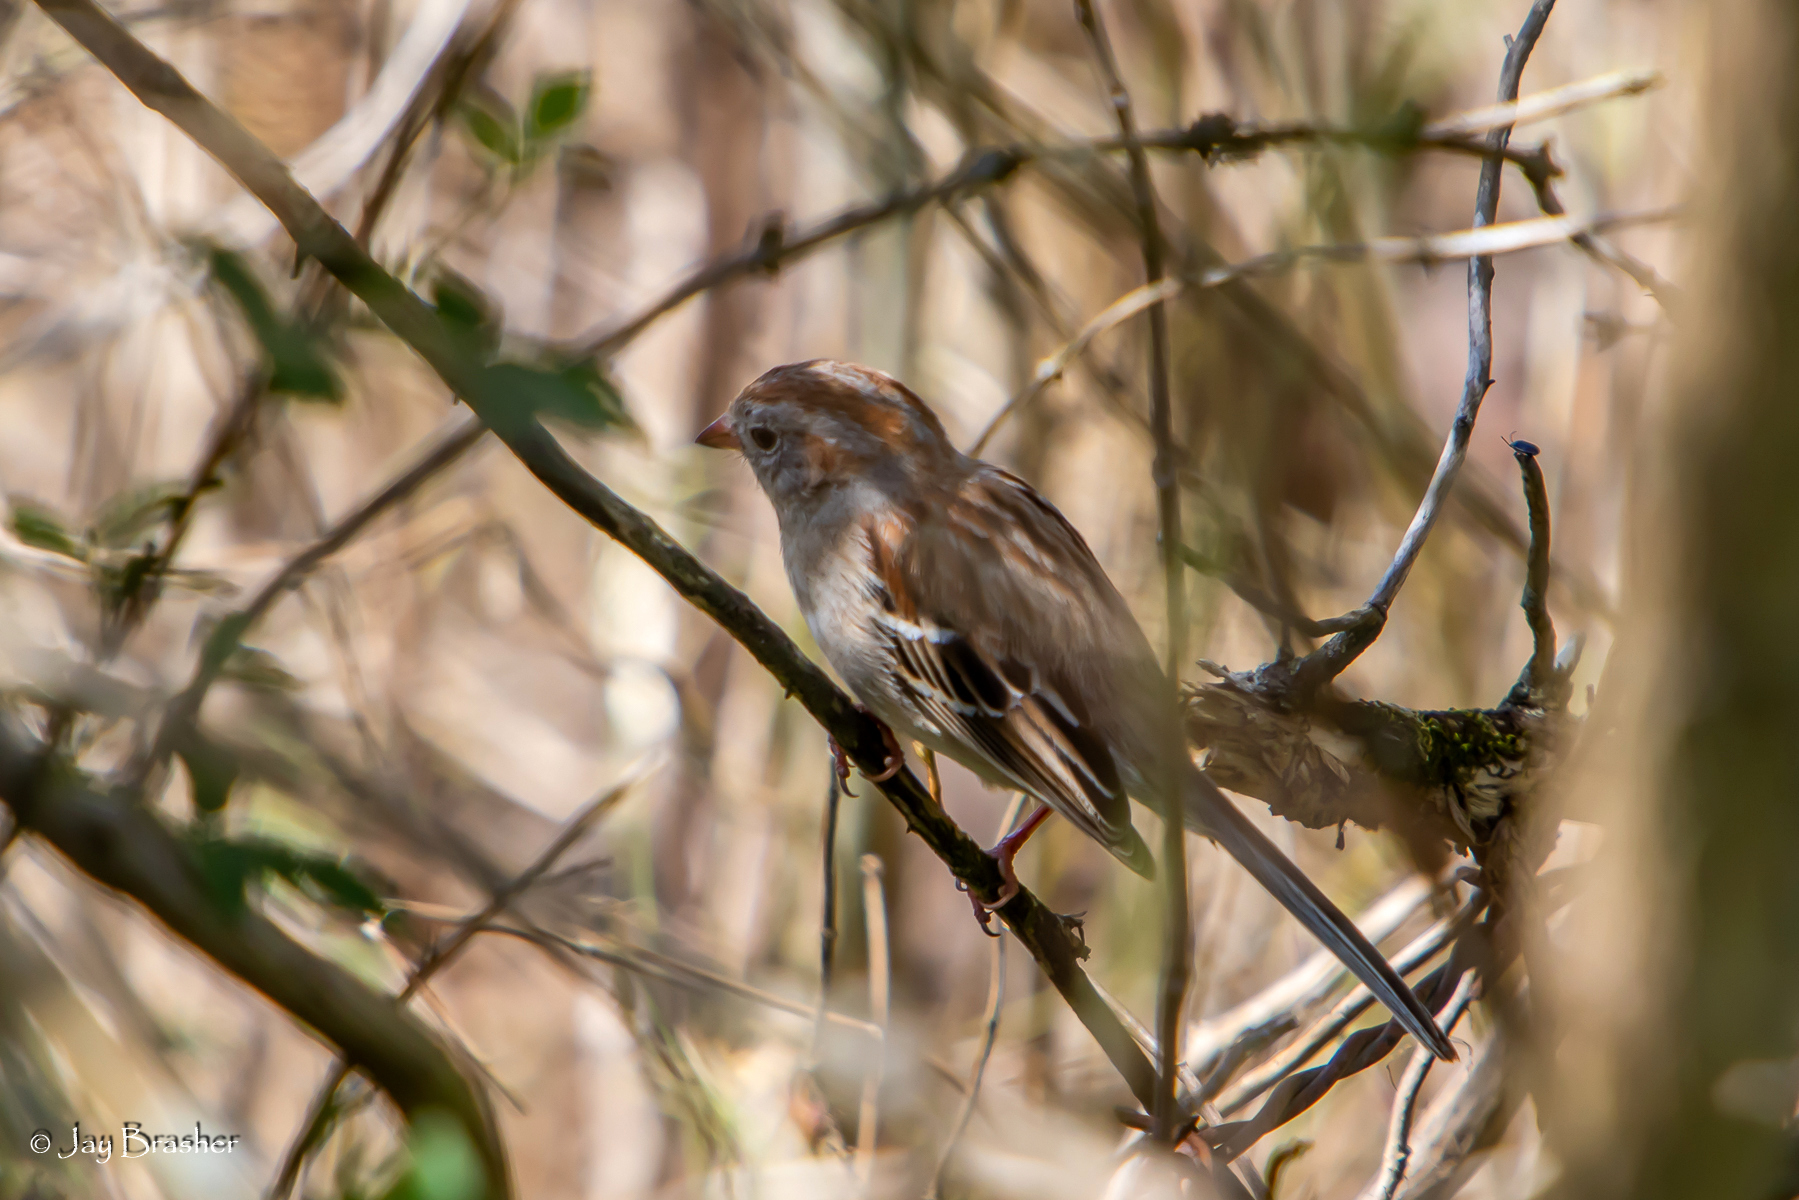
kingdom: Animalia
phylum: Chordata
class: Aves
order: Passeriformes
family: Passerellidae
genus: Spizella
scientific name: Spizella pusilla
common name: Field sparrow
